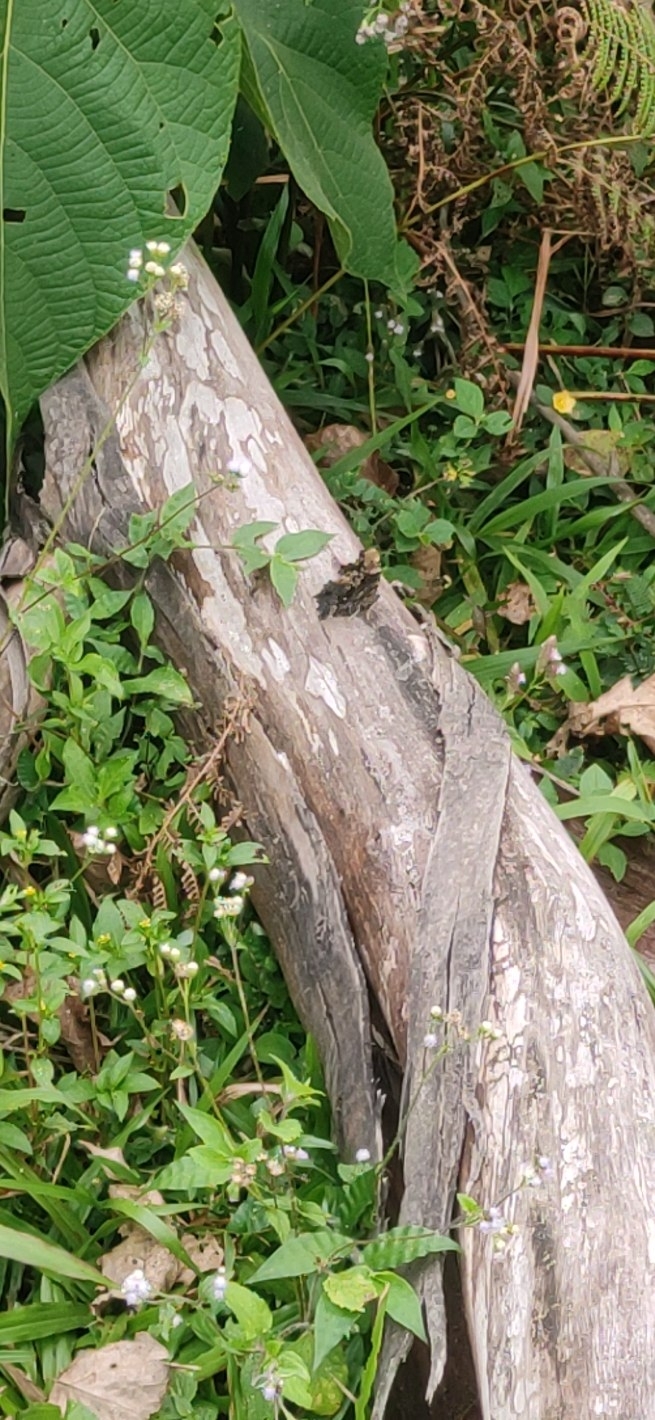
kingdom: Animalia
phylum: Arthropoda
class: Insecta
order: Lepidoptera
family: Nymphalidae
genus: Vanessa
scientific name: Vanessa Kaniska canace
